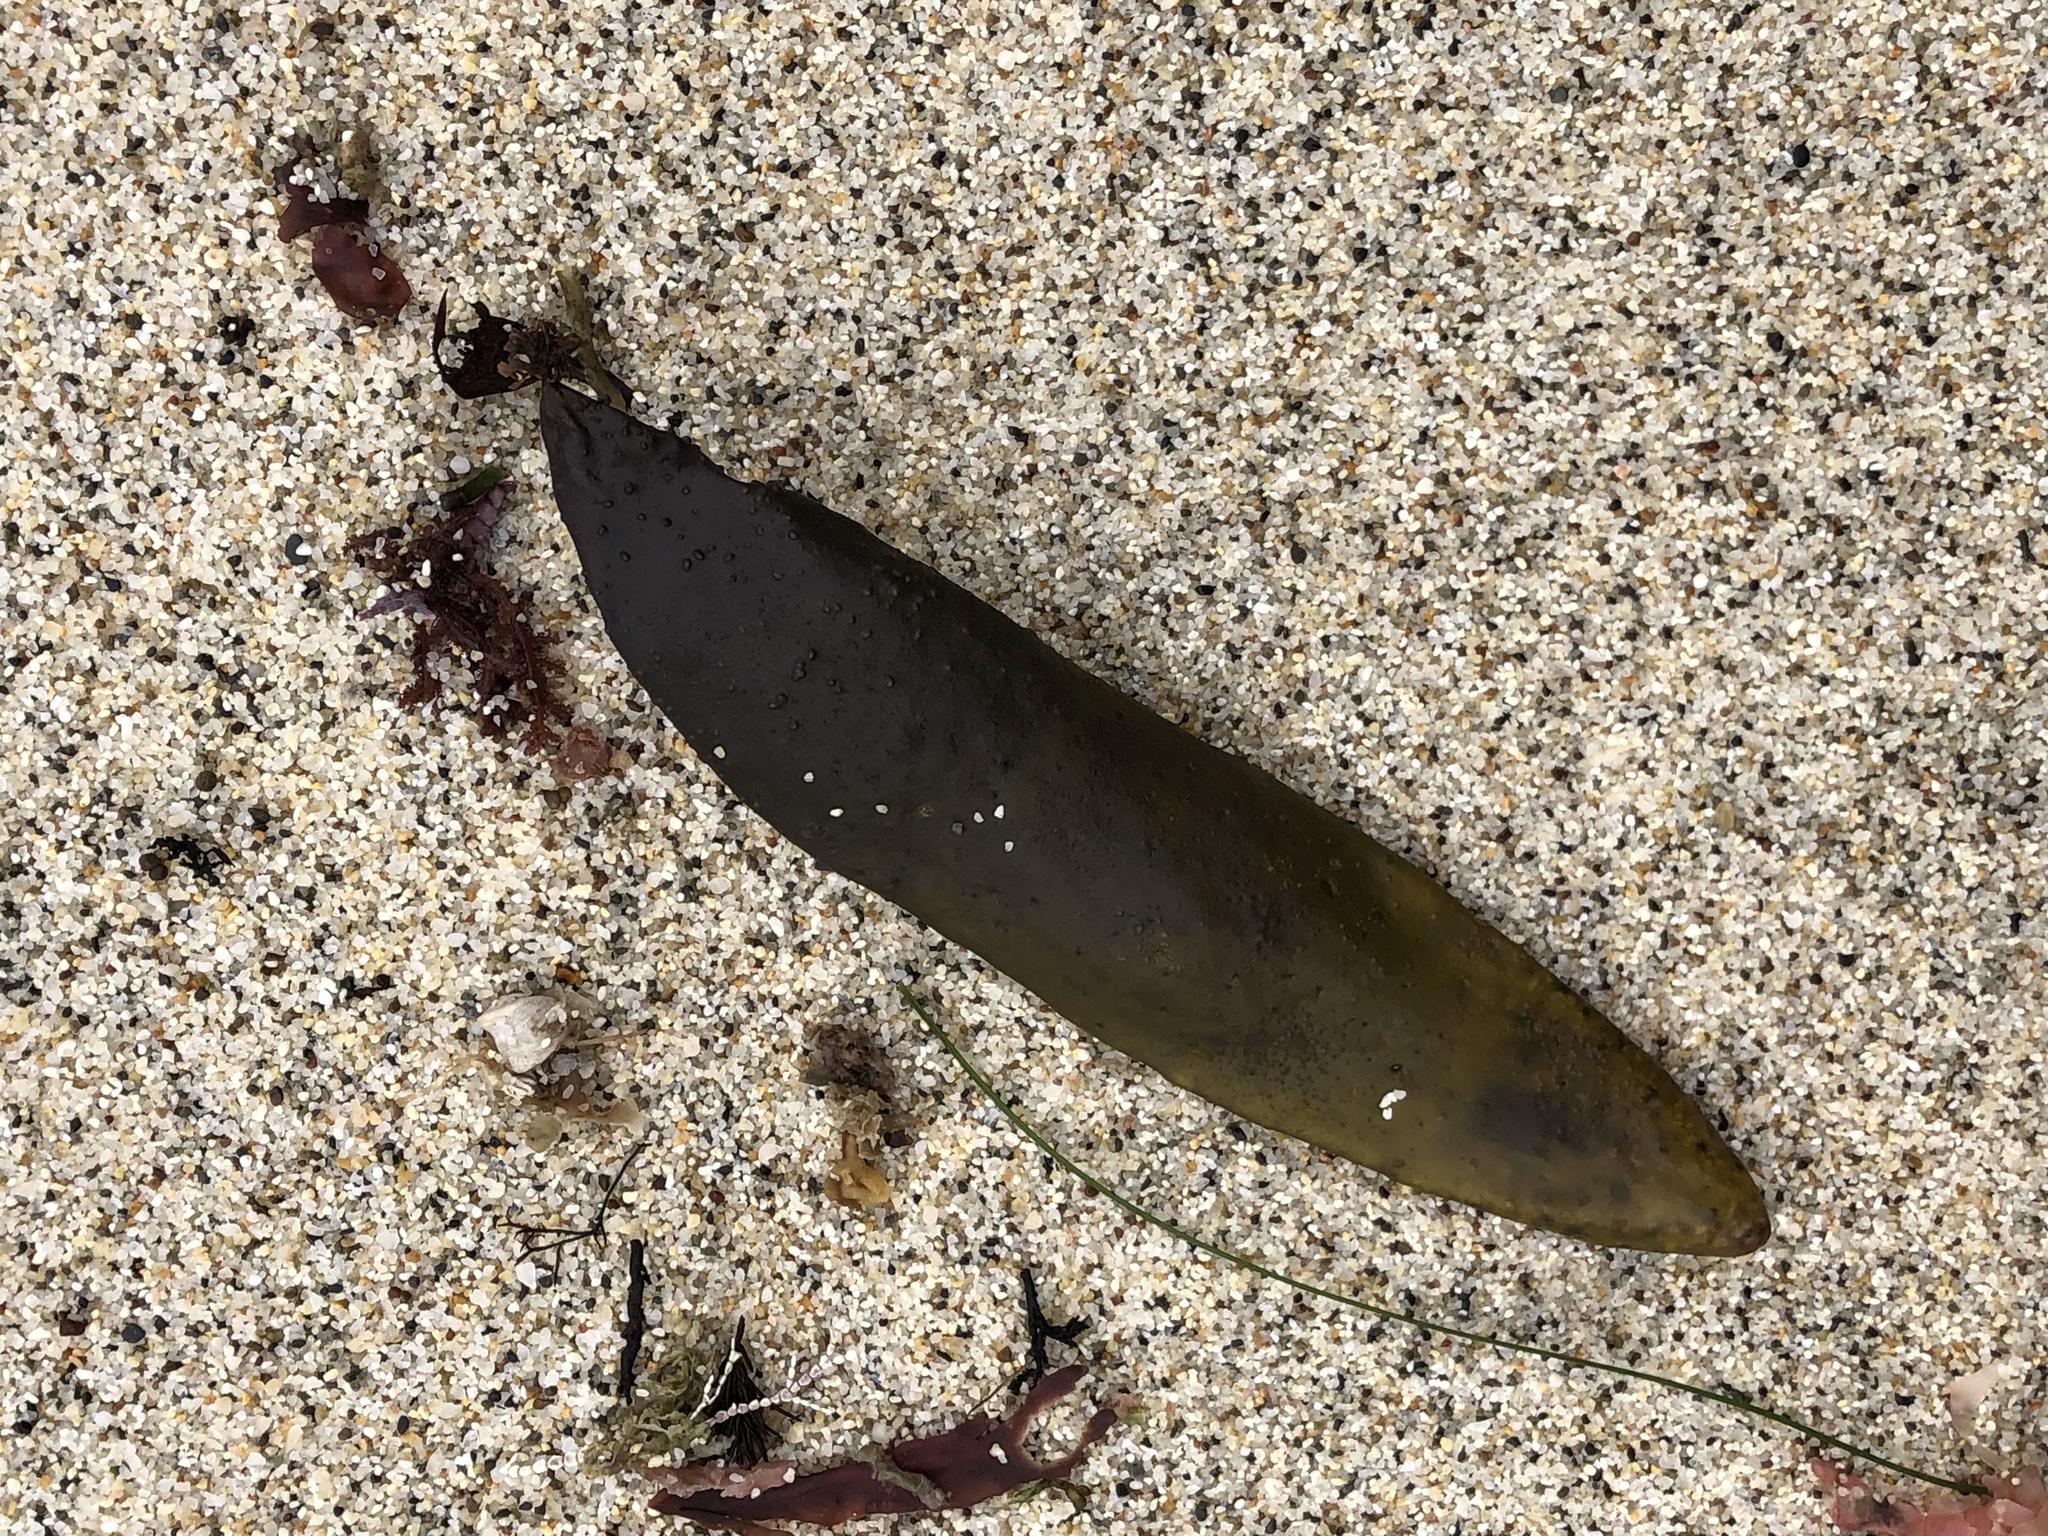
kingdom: Plantae
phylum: Rhodophyta
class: Florideophyceae
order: Palmariales
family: Palmariaceae
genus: Halosaccion
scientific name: Halosaccion glandiforme
